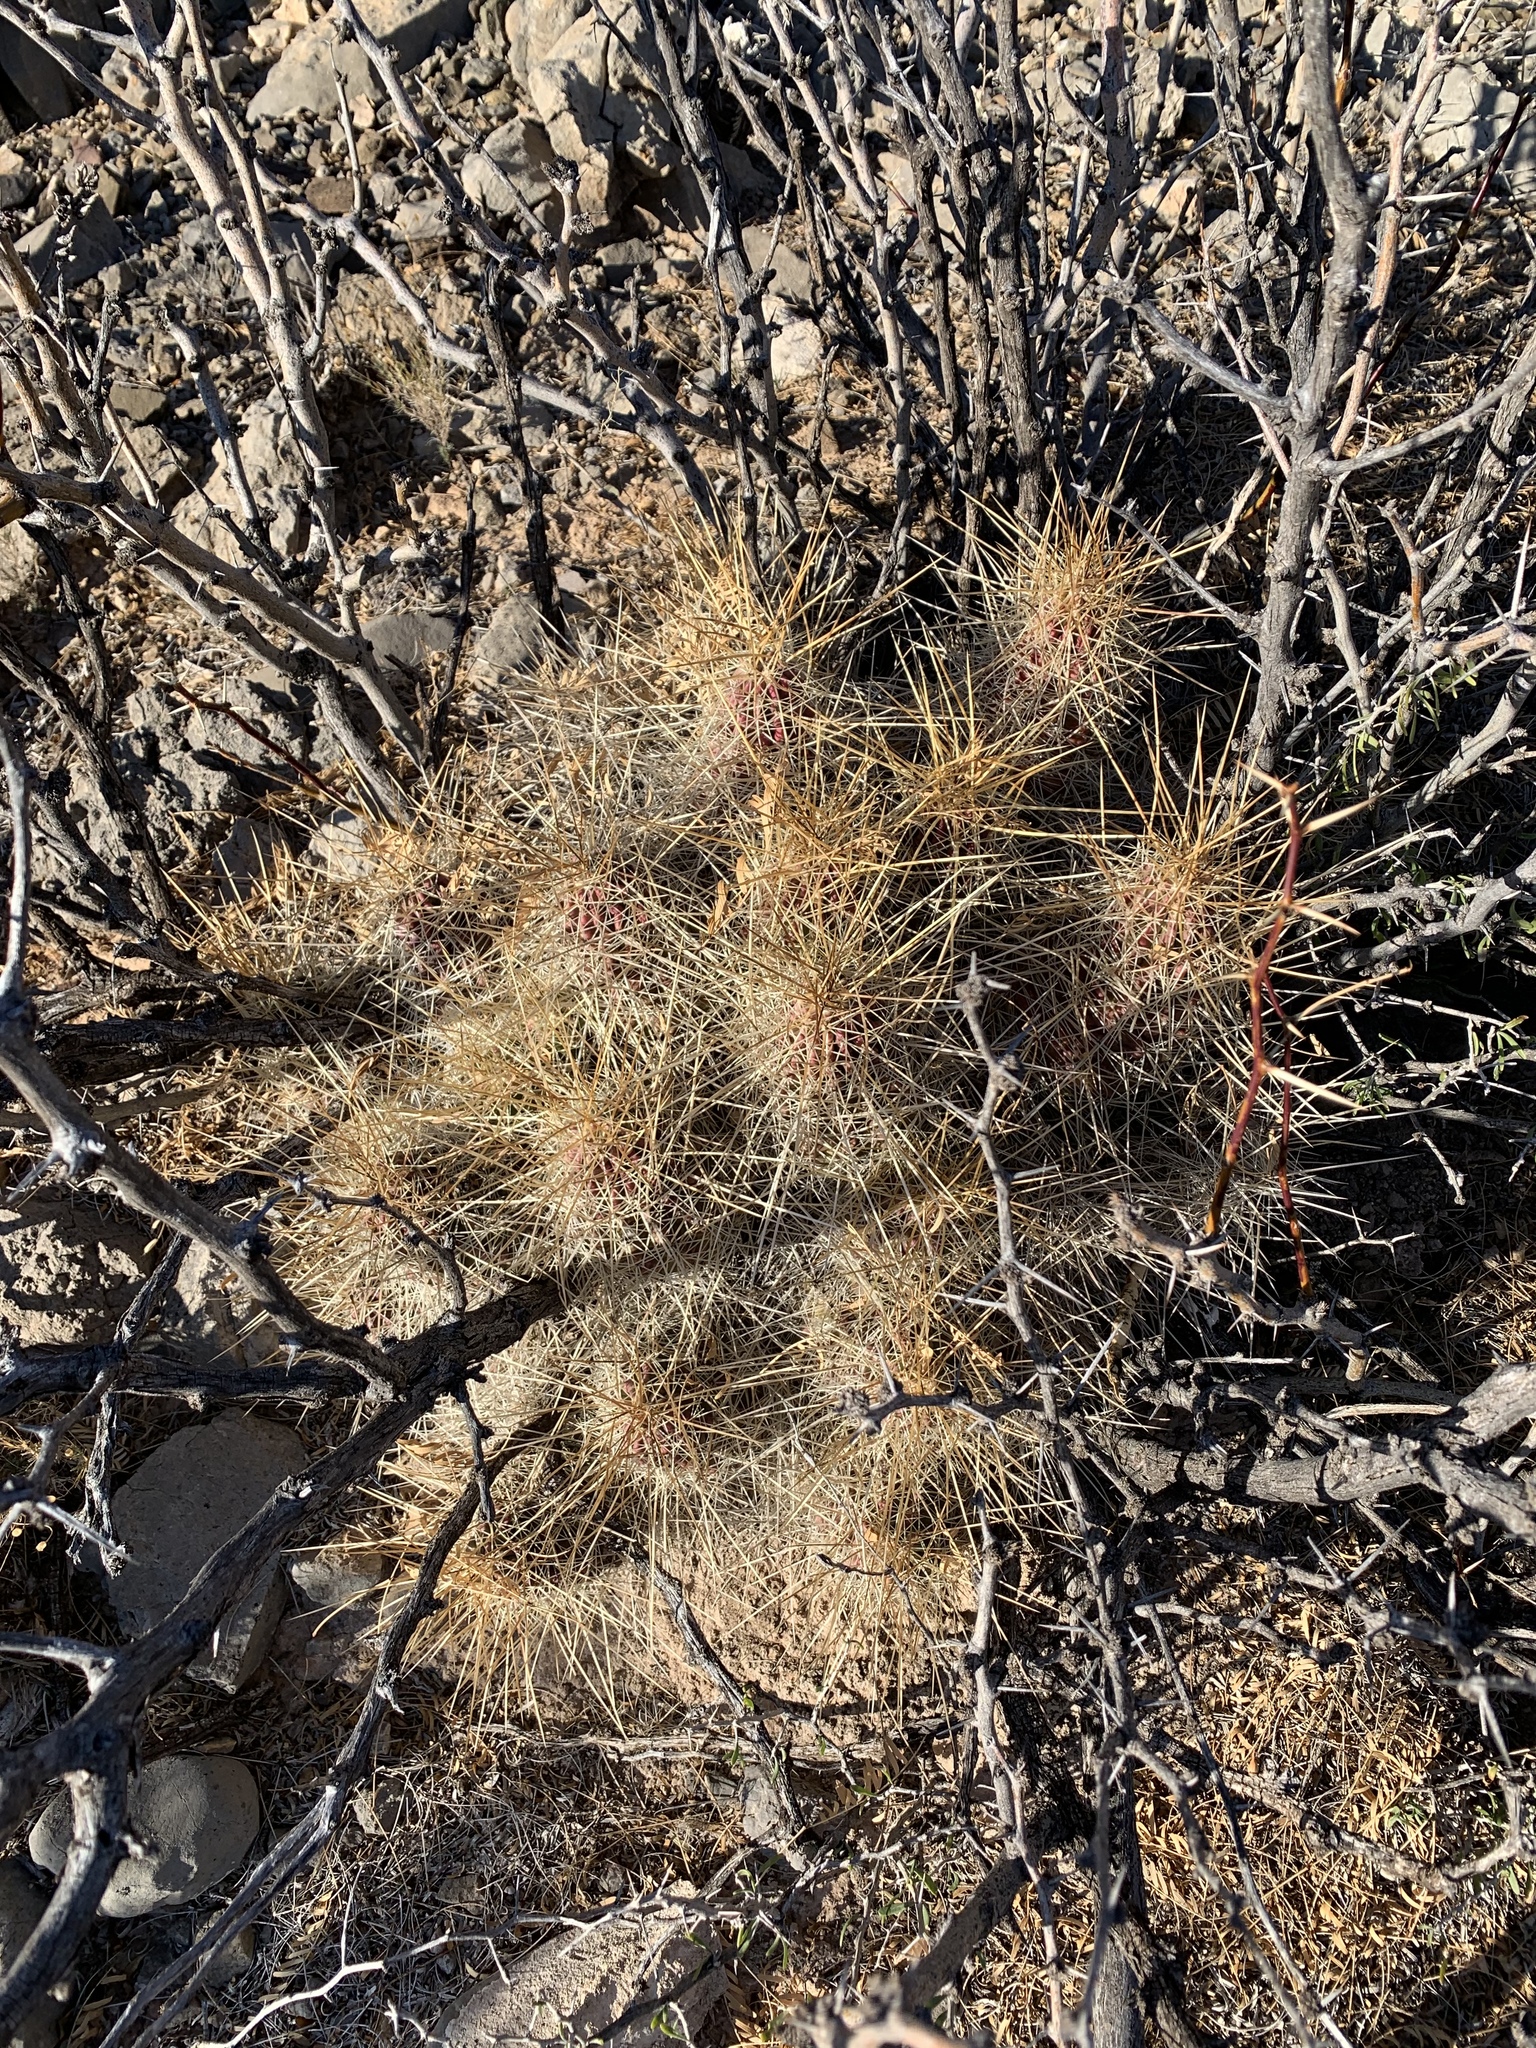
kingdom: Plantae
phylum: Tracheophyta
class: Magnoliopsida
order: Caryophyllales
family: Cactaceae
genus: Echinocereus
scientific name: Echinocereus stramineus
